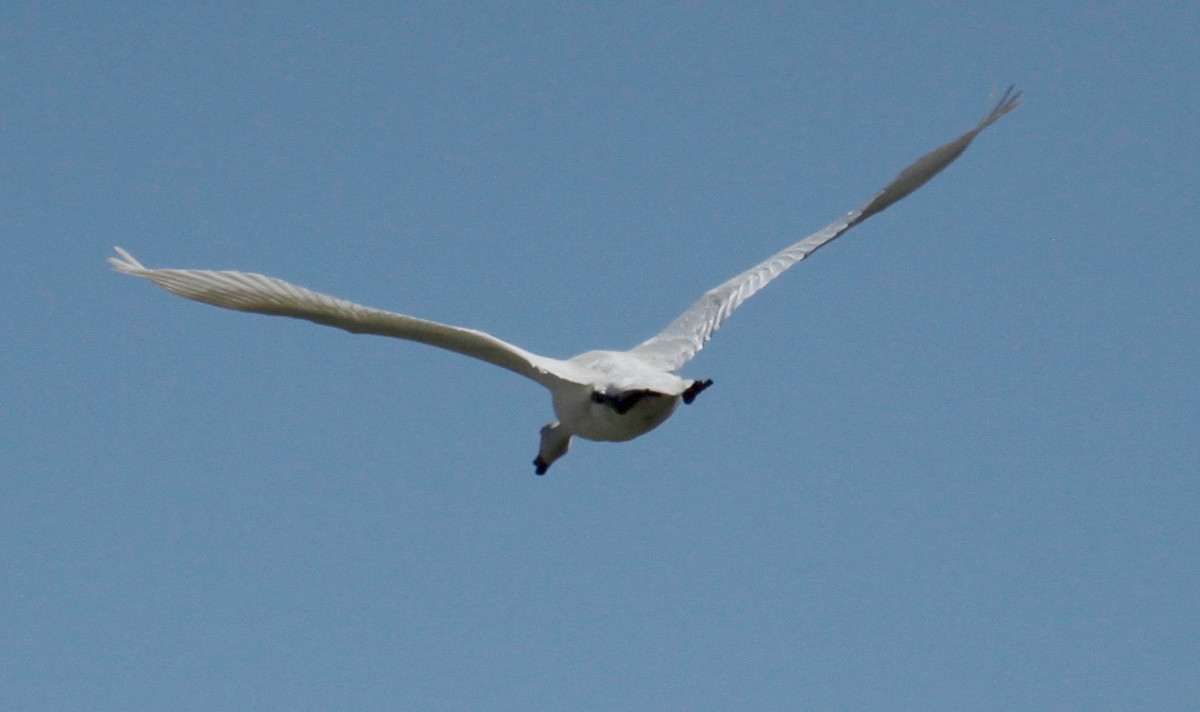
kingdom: Animalia
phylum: Chordata
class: Aves
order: Anseriformes
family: Anatidae
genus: Cygnus
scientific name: Cygnus
